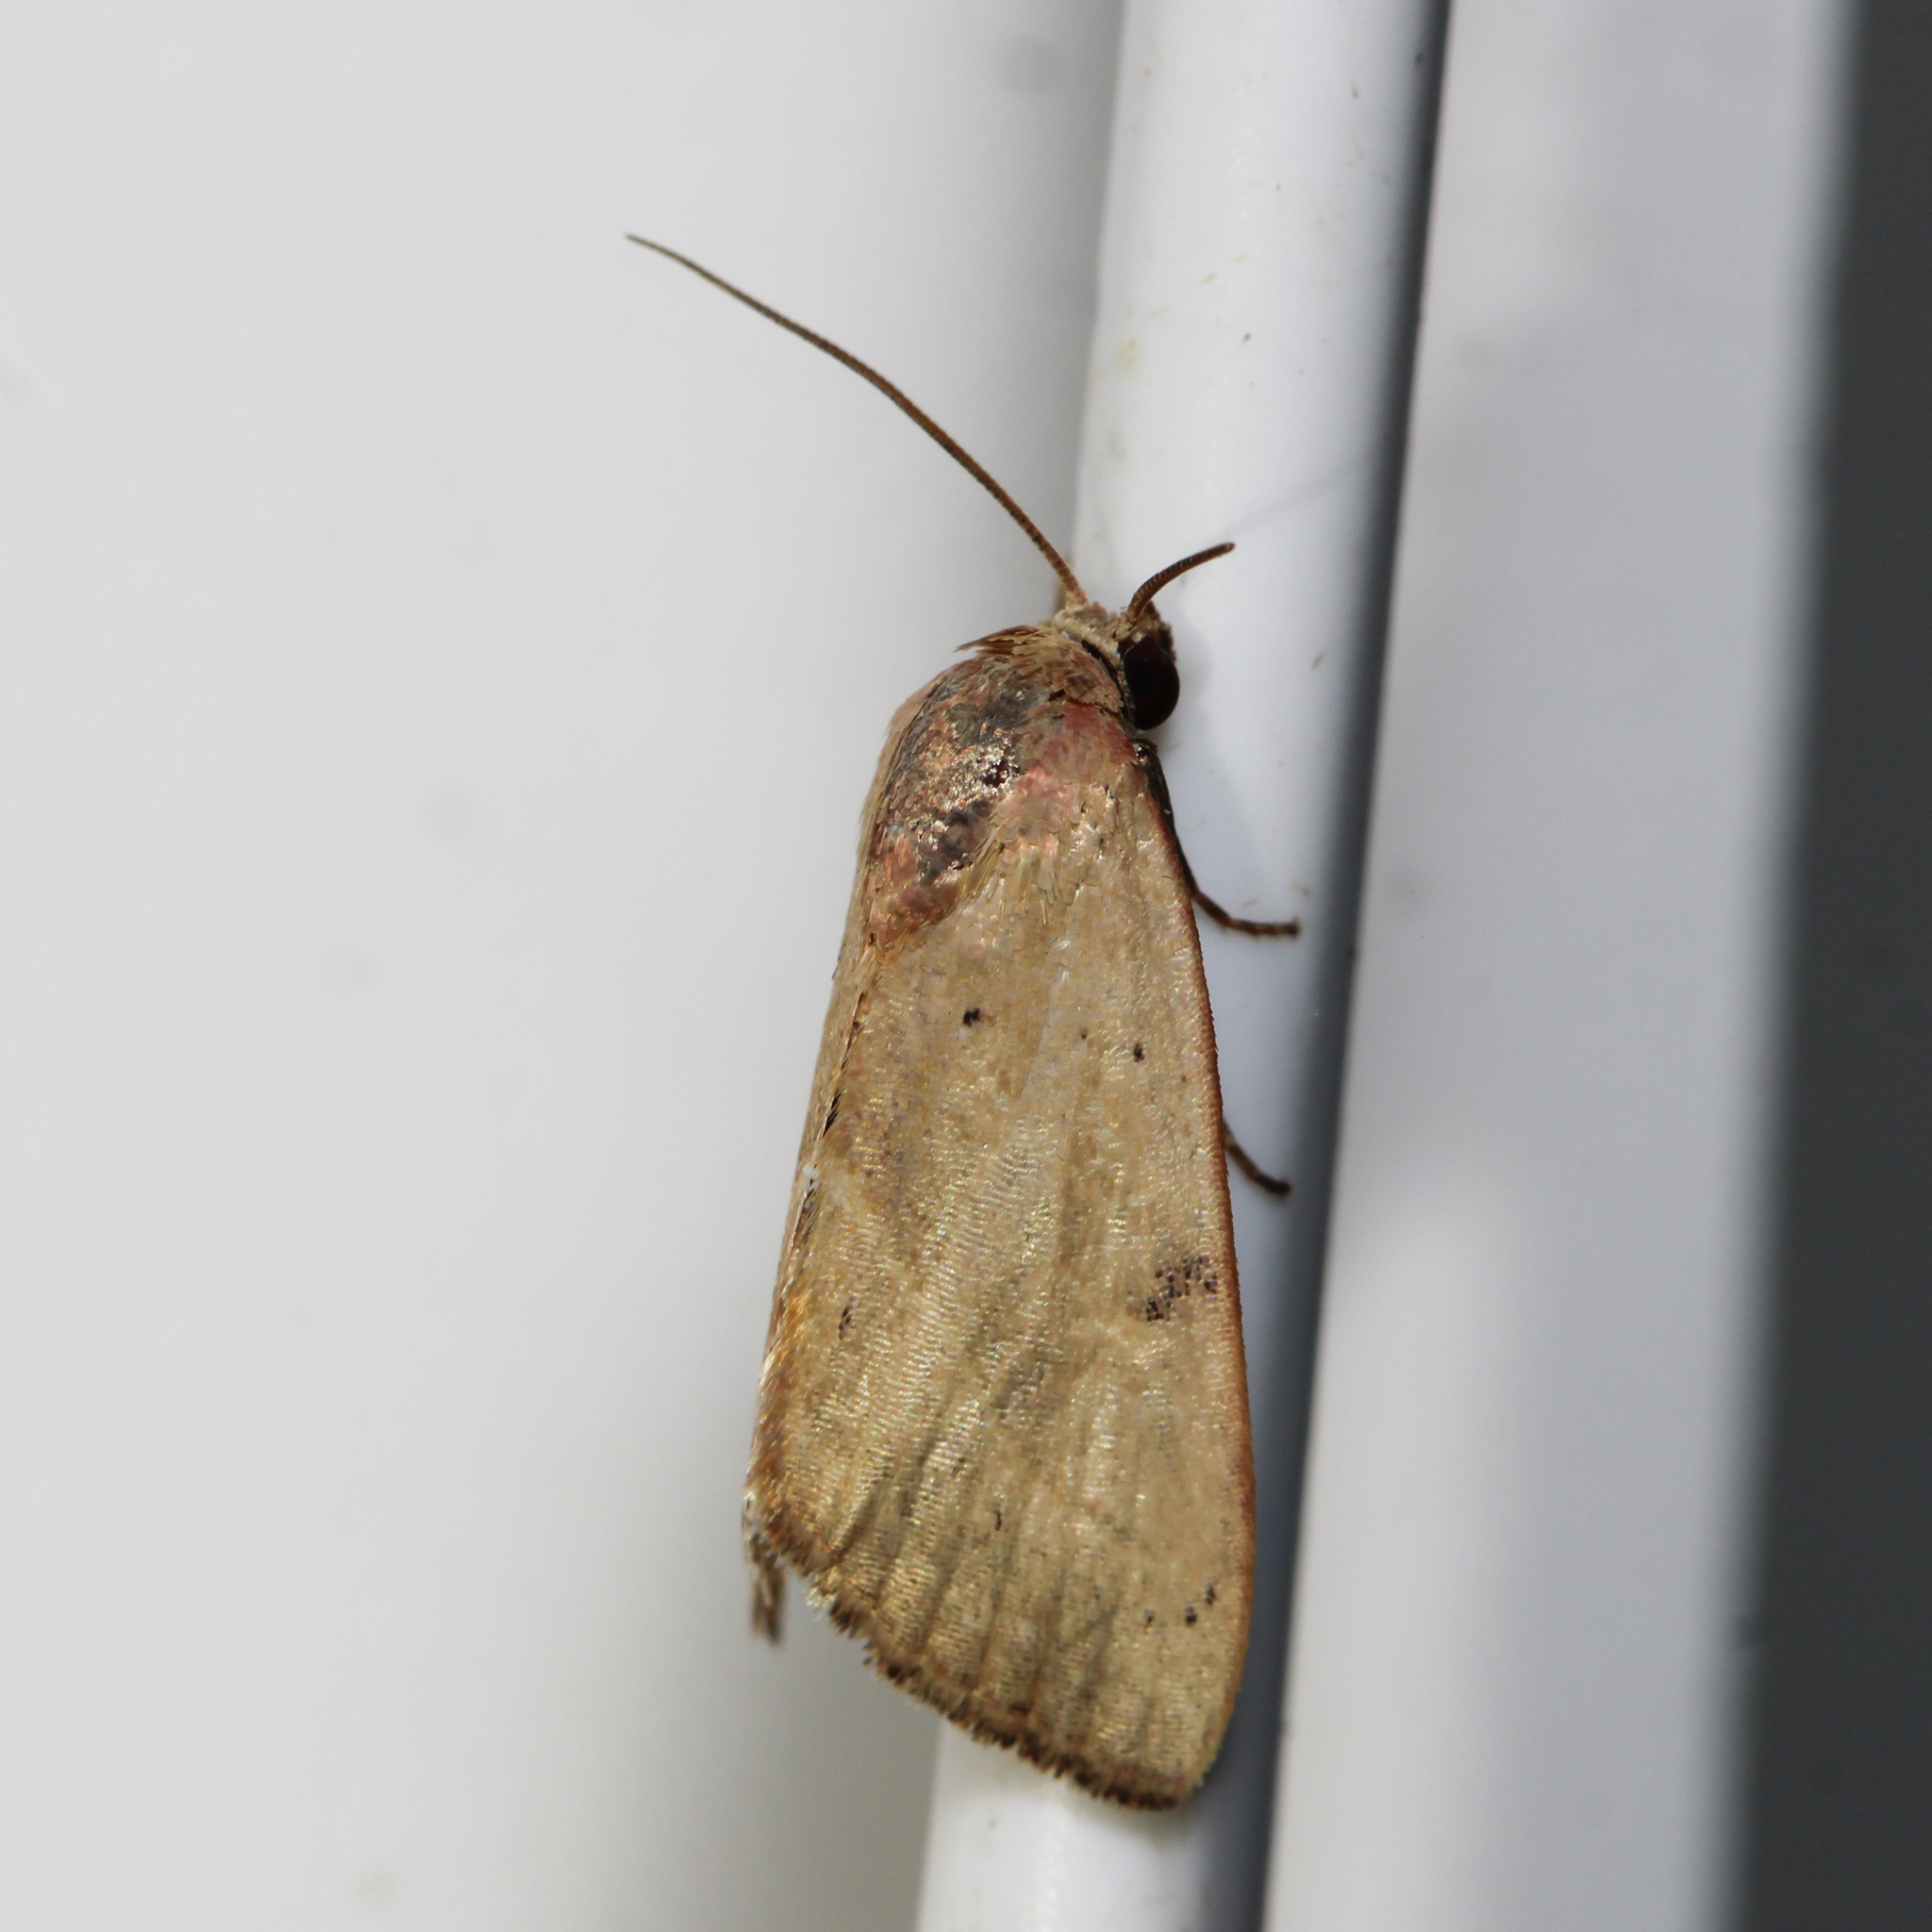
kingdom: Animalia
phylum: Arthropoda
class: Insecta
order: Lepidoptera
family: Noctuidae
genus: Galgula
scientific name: Galgula partita
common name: Wedgeling
